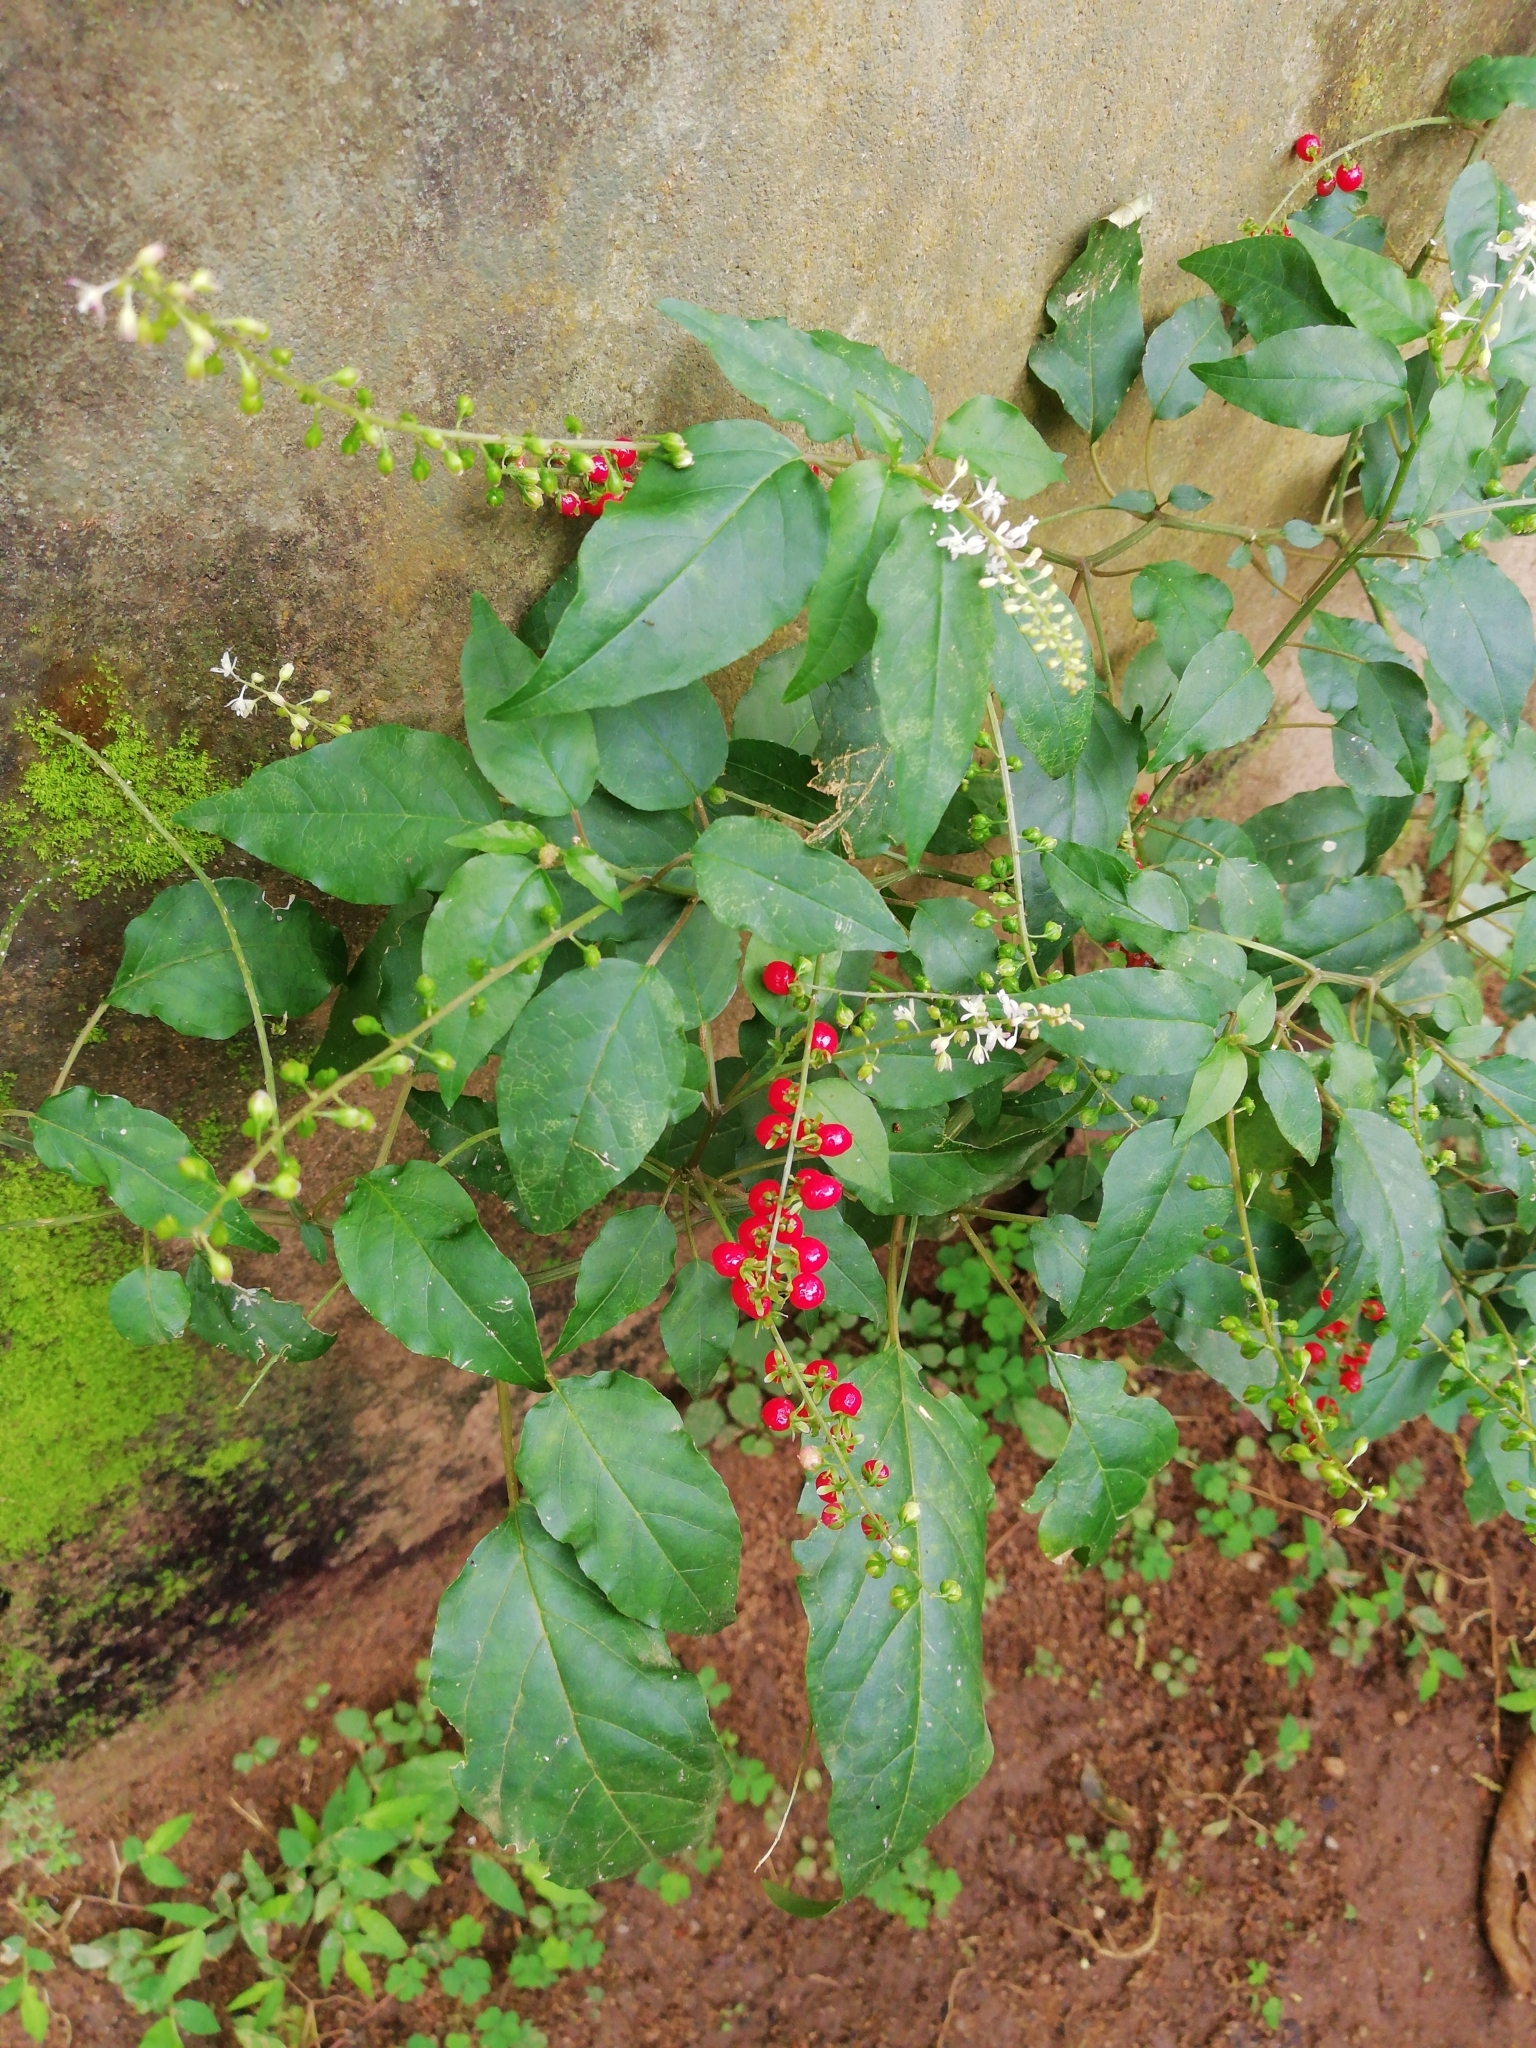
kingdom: Plantae
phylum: Tracheophyta
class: Magnoliopsida
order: Caryophyllales
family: Phytolaccaceae
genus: Rivina
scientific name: Rivina humilis
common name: Rougeplant
